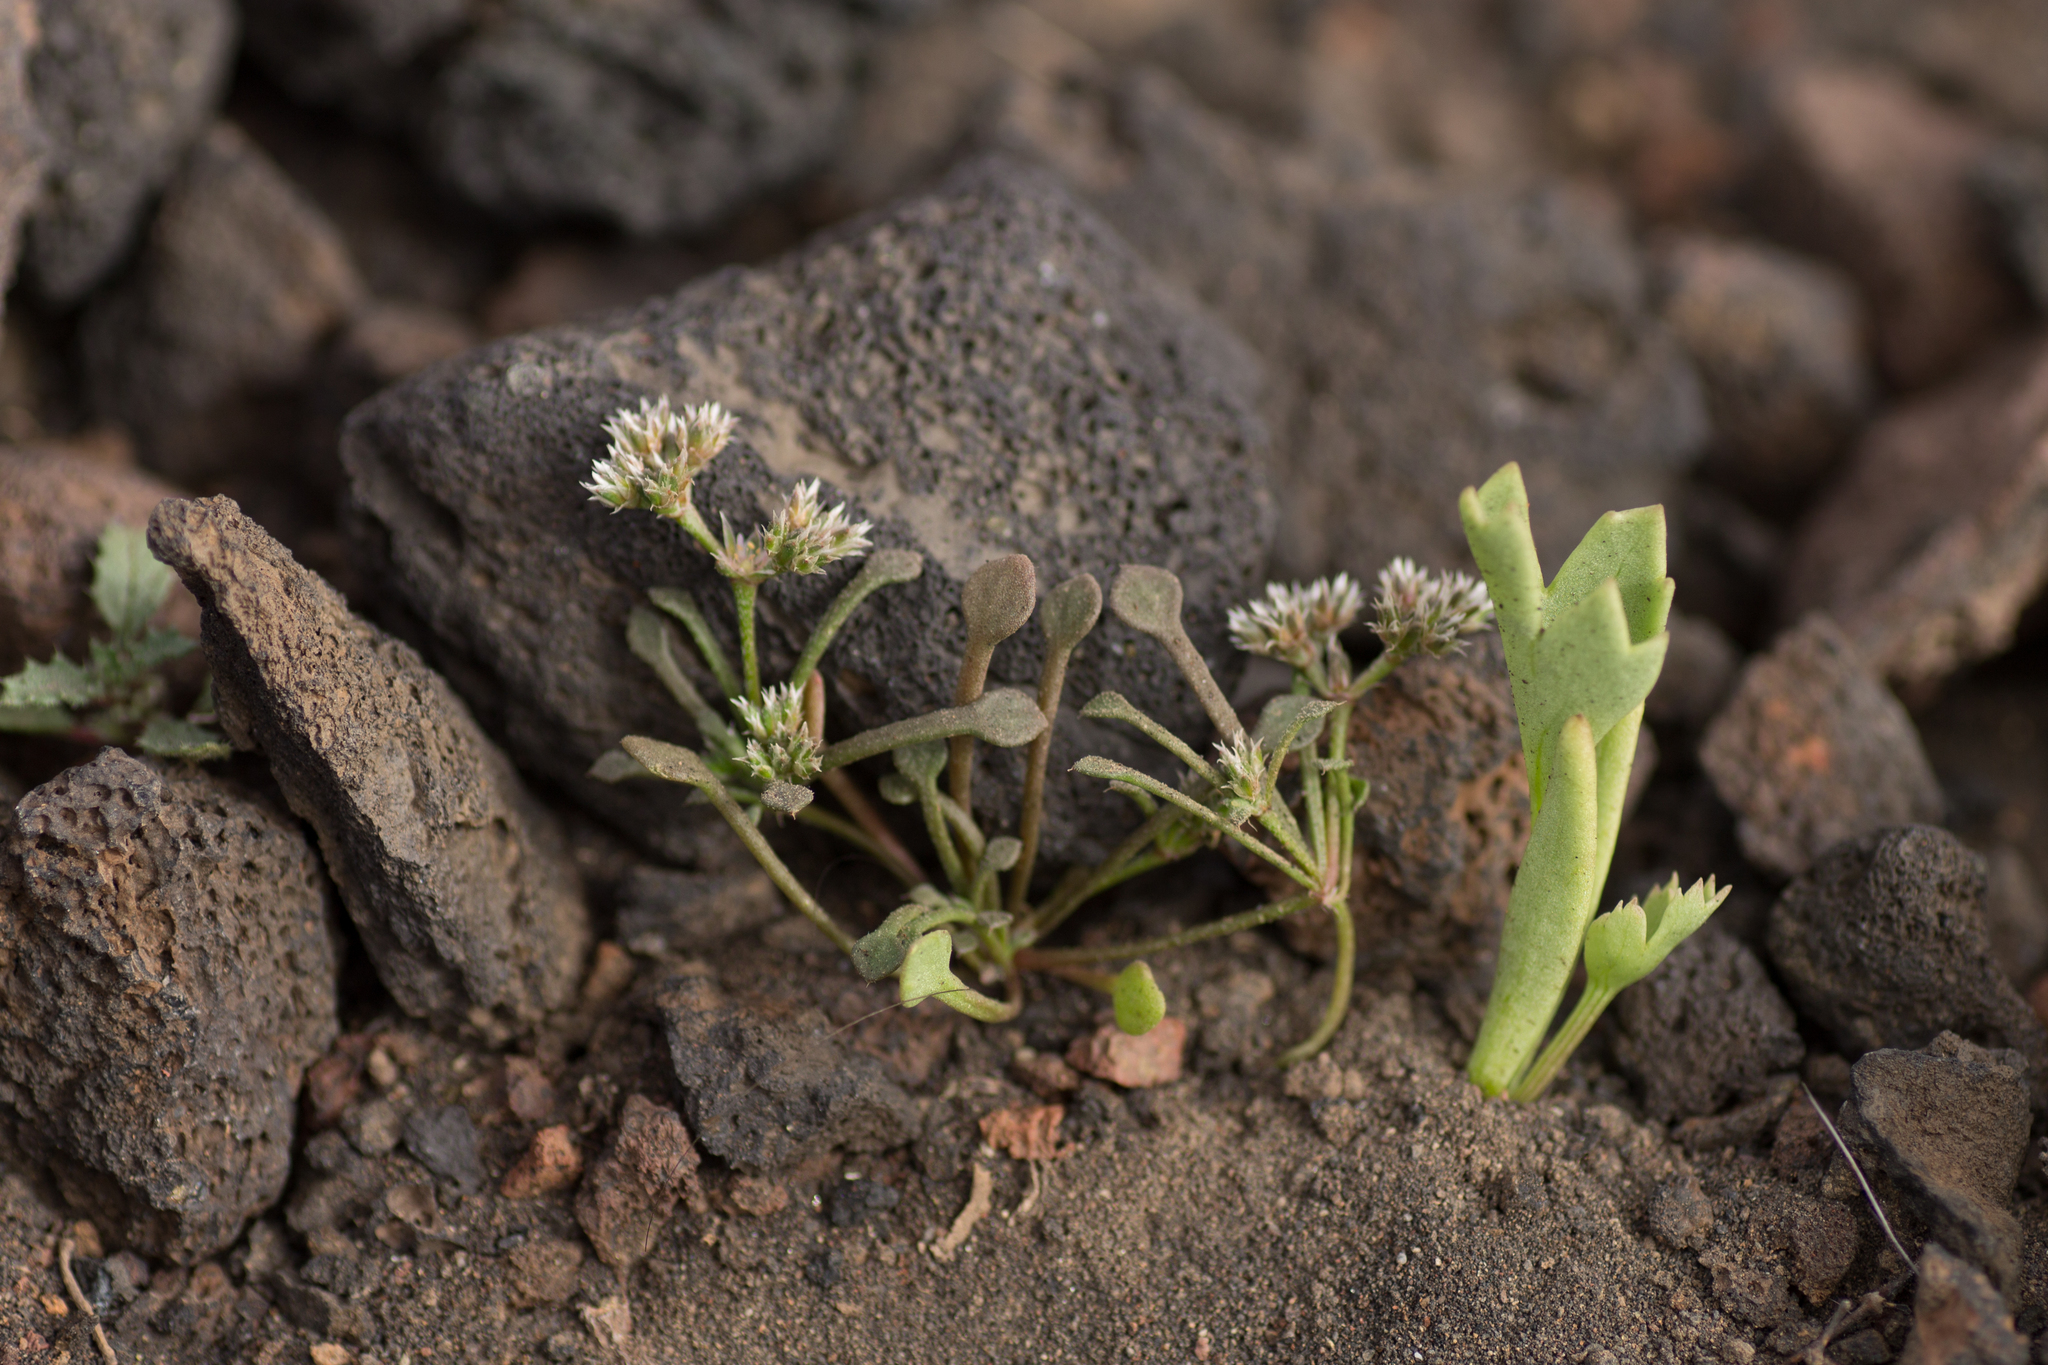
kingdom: Plantae
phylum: Tracheophyta
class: Magnoliopsida
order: Caryophyllales
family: Caryophyllaceae
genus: Polycarpaea
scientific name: Polycarpaea divaricata
